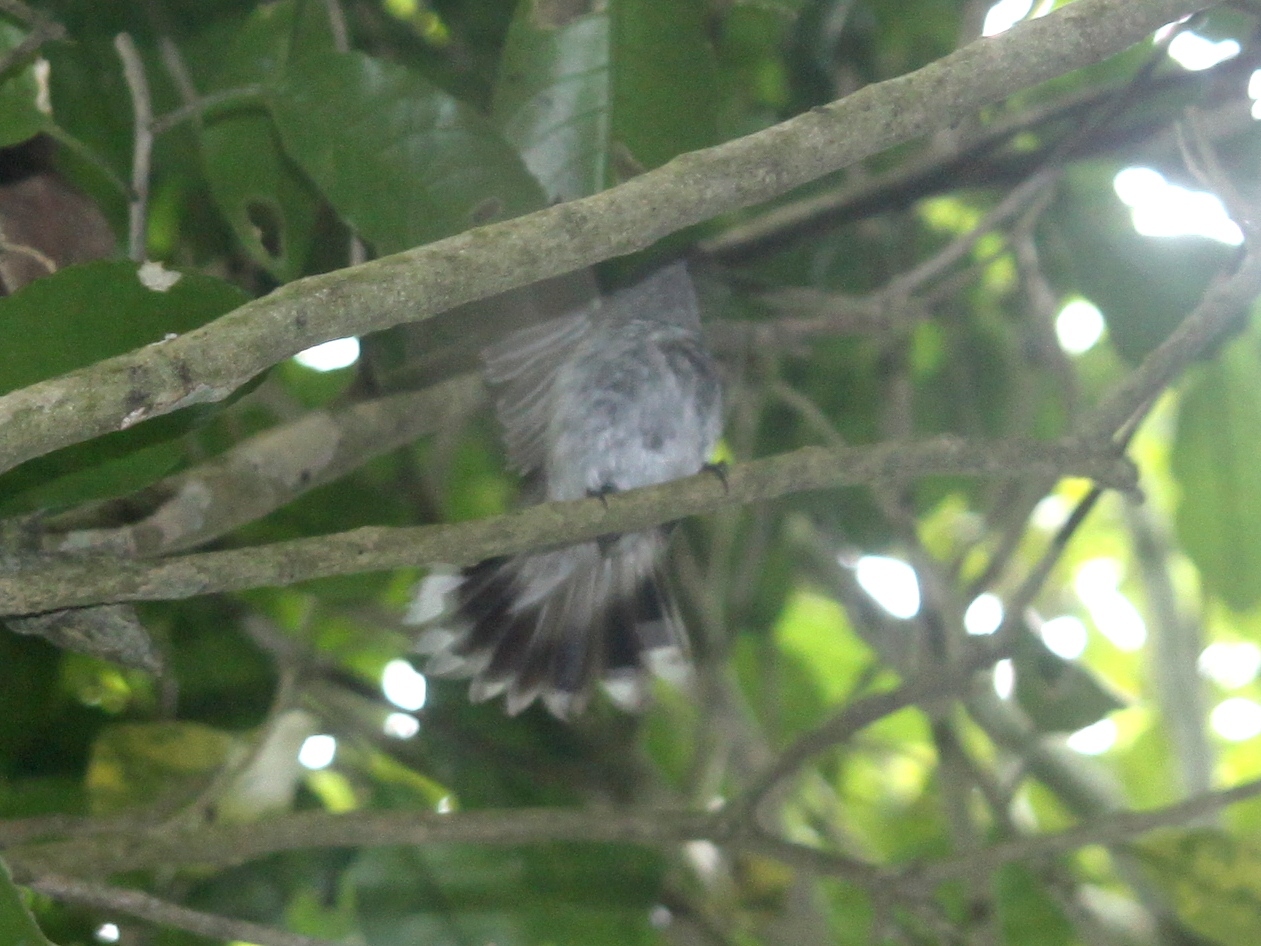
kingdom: Animalia
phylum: Chordata
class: Aves
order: Passeriformes
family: Acanthizidae
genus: Gerygone
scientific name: Gerygone igata
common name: Grey gerygone
